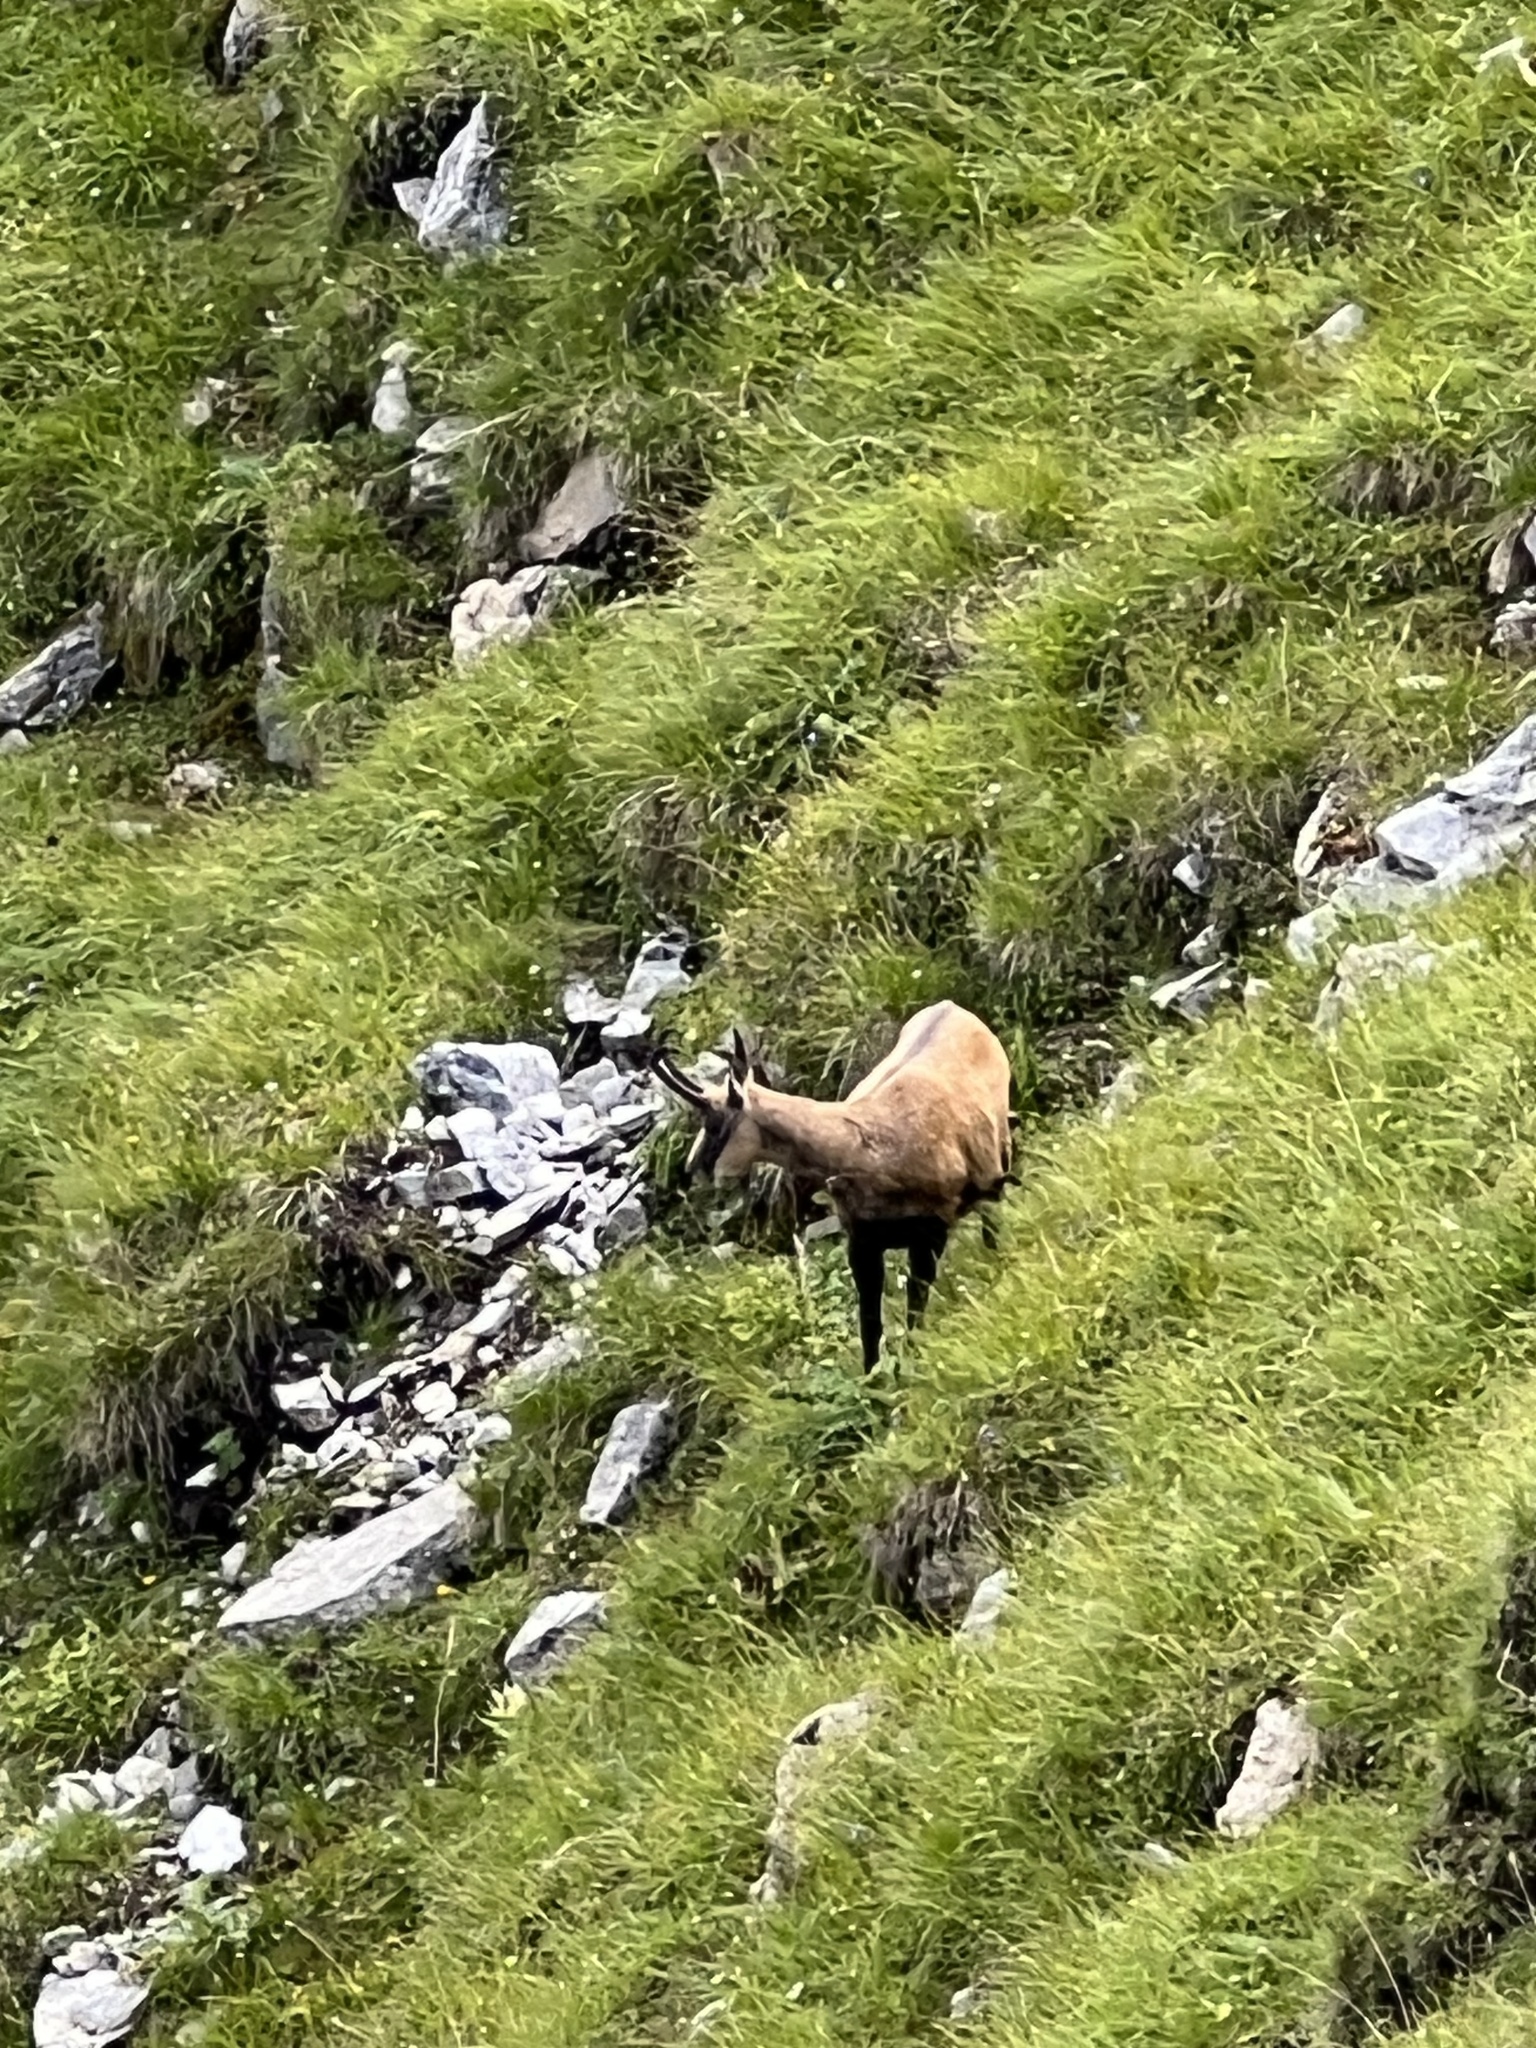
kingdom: Animalia
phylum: Chordata
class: Mammalia
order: Artiodactyla
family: Bovidae
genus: Rupicapra
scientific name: Rupicapra rupicapra
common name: Chamois
